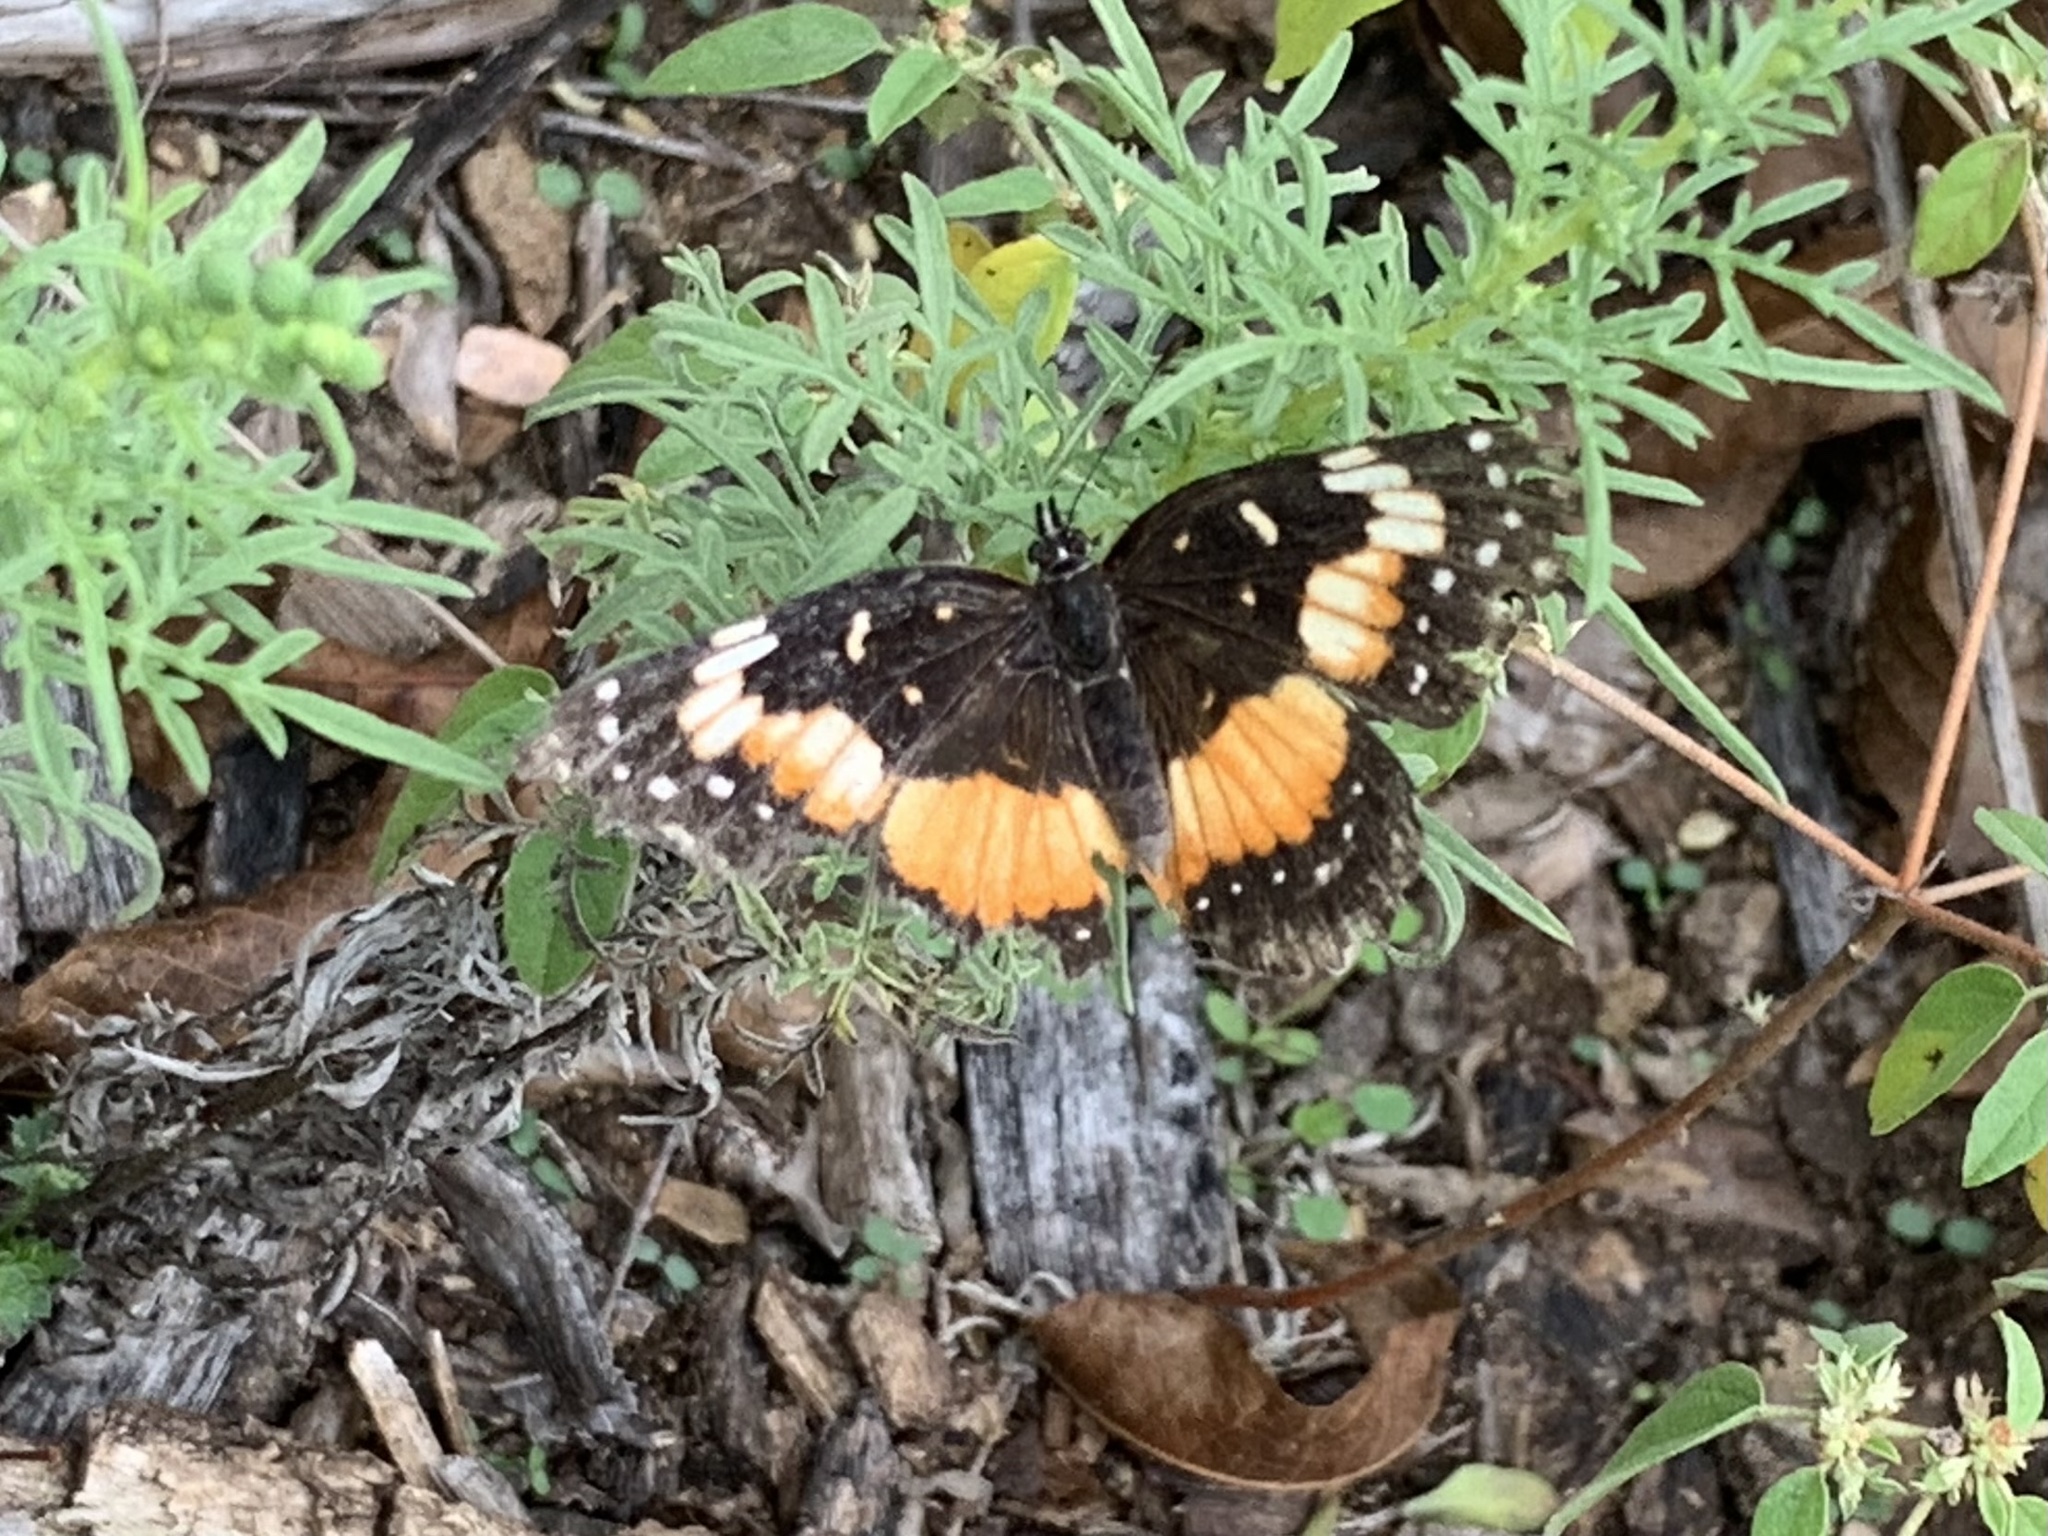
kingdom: Animalia
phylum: Arthropoda
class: Insecta
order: Lepidoptera
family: Nymphalidae
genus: Chlosyne
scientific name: Chlosyne lacinia
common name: Bordered patch
